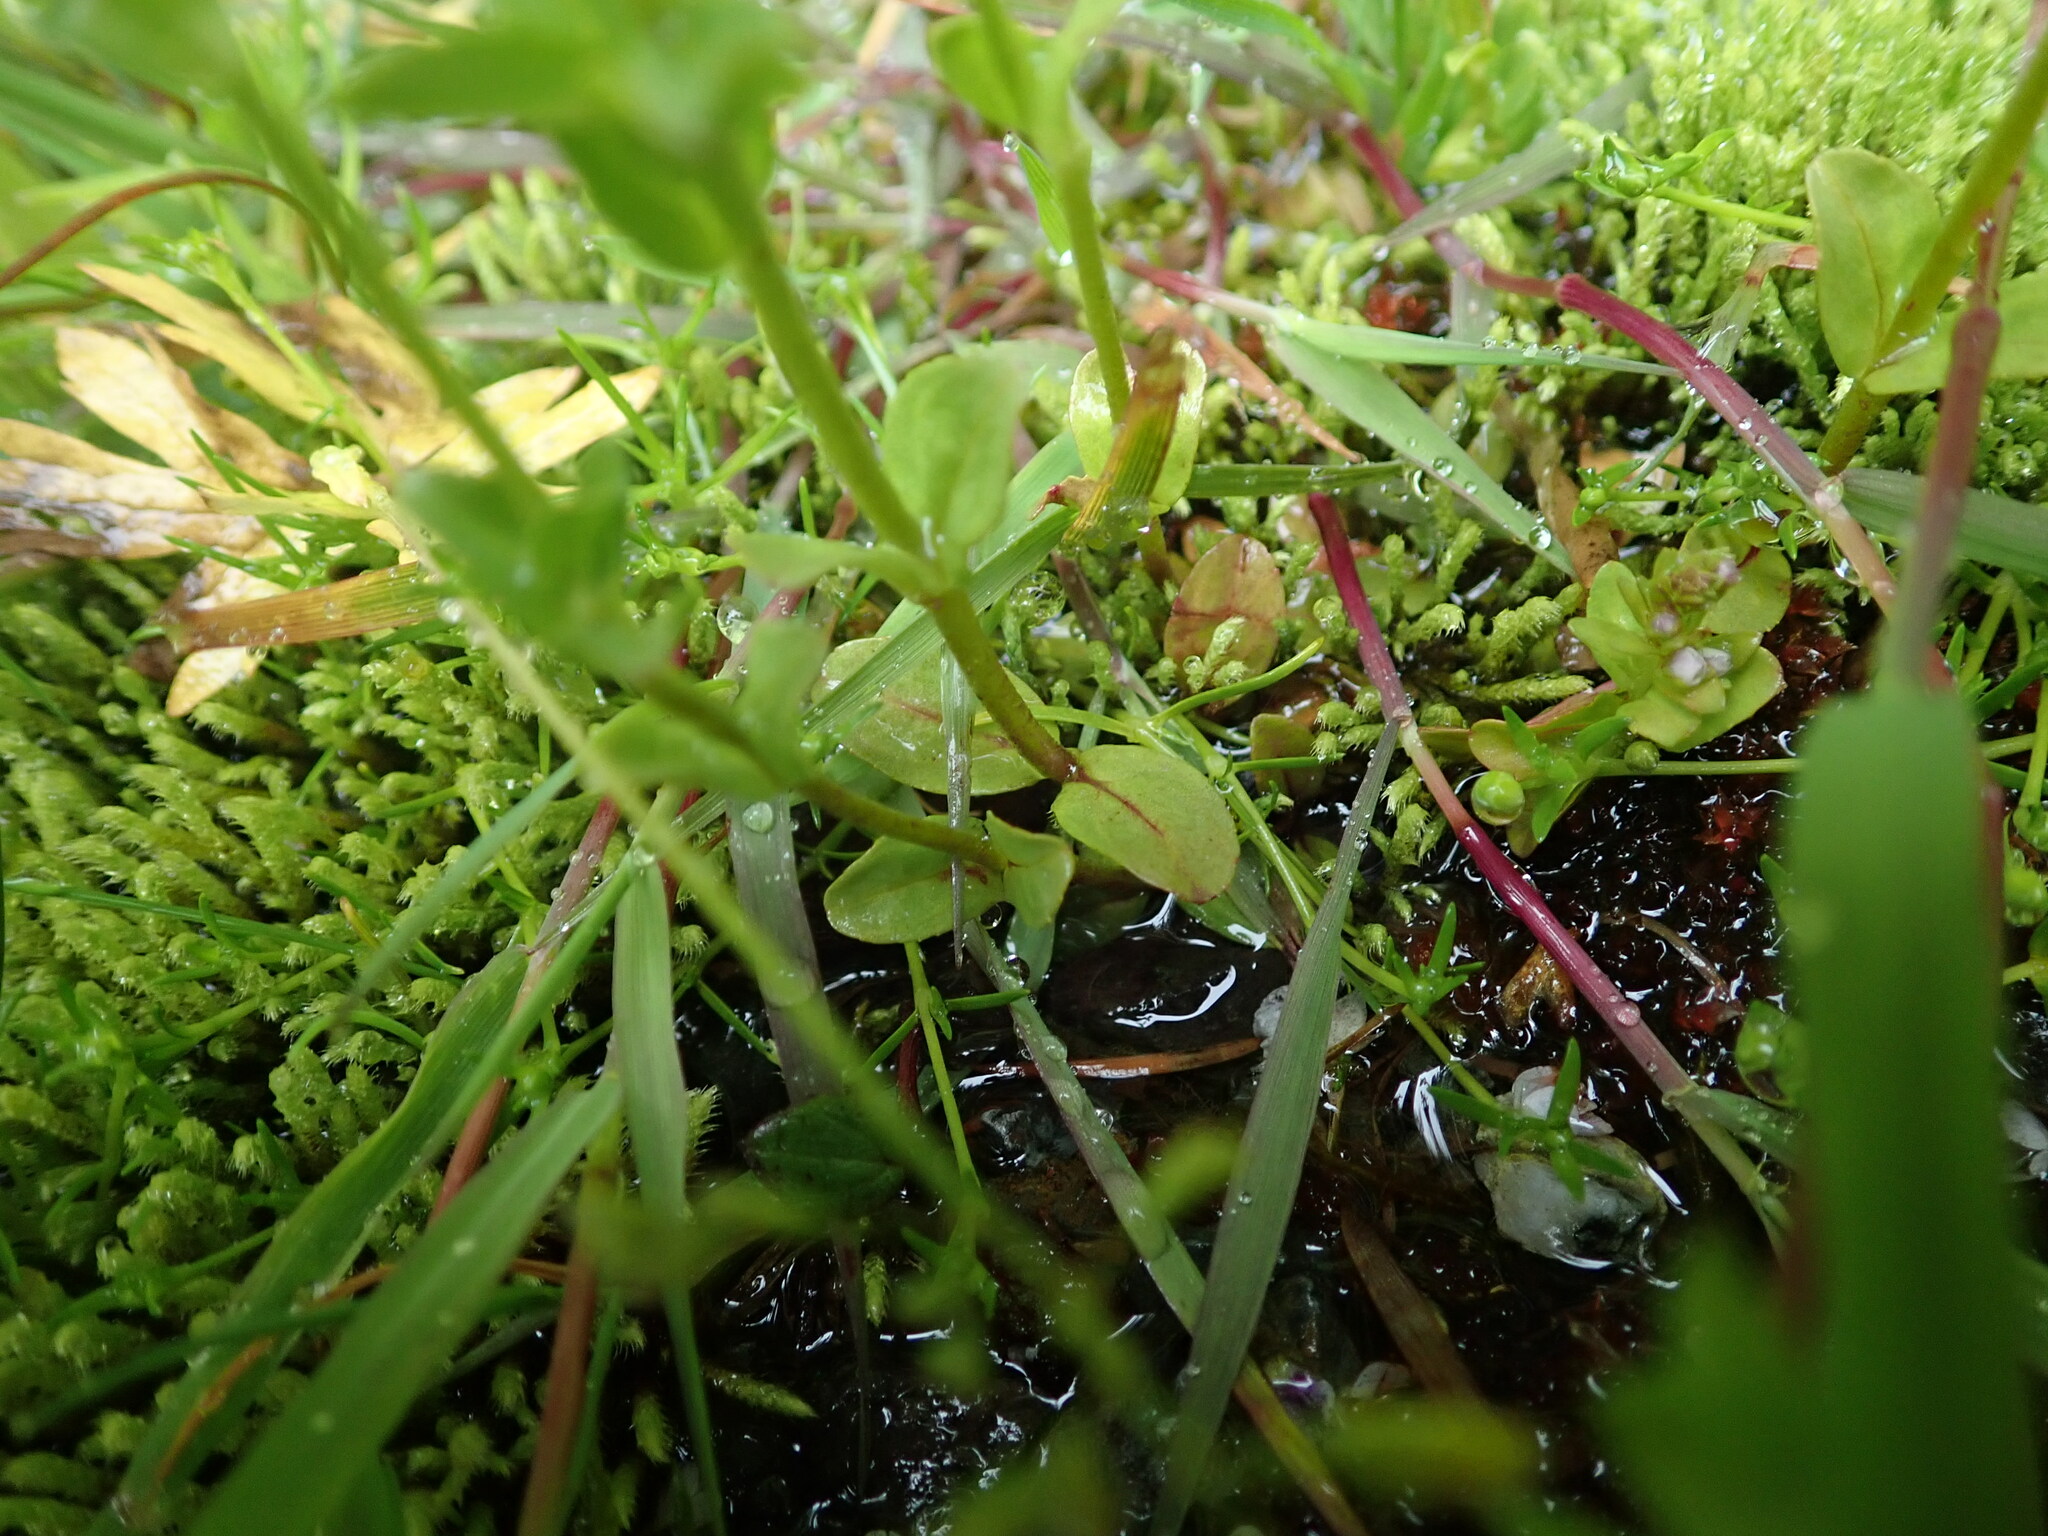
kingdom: Plantae
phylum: Tracheophyta
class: Magnoliopsida
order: Lamiales
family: Plantaginaceae
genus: Veronica
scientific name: Veronica serpyllifolia
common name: Thyme-leaved speedwell
